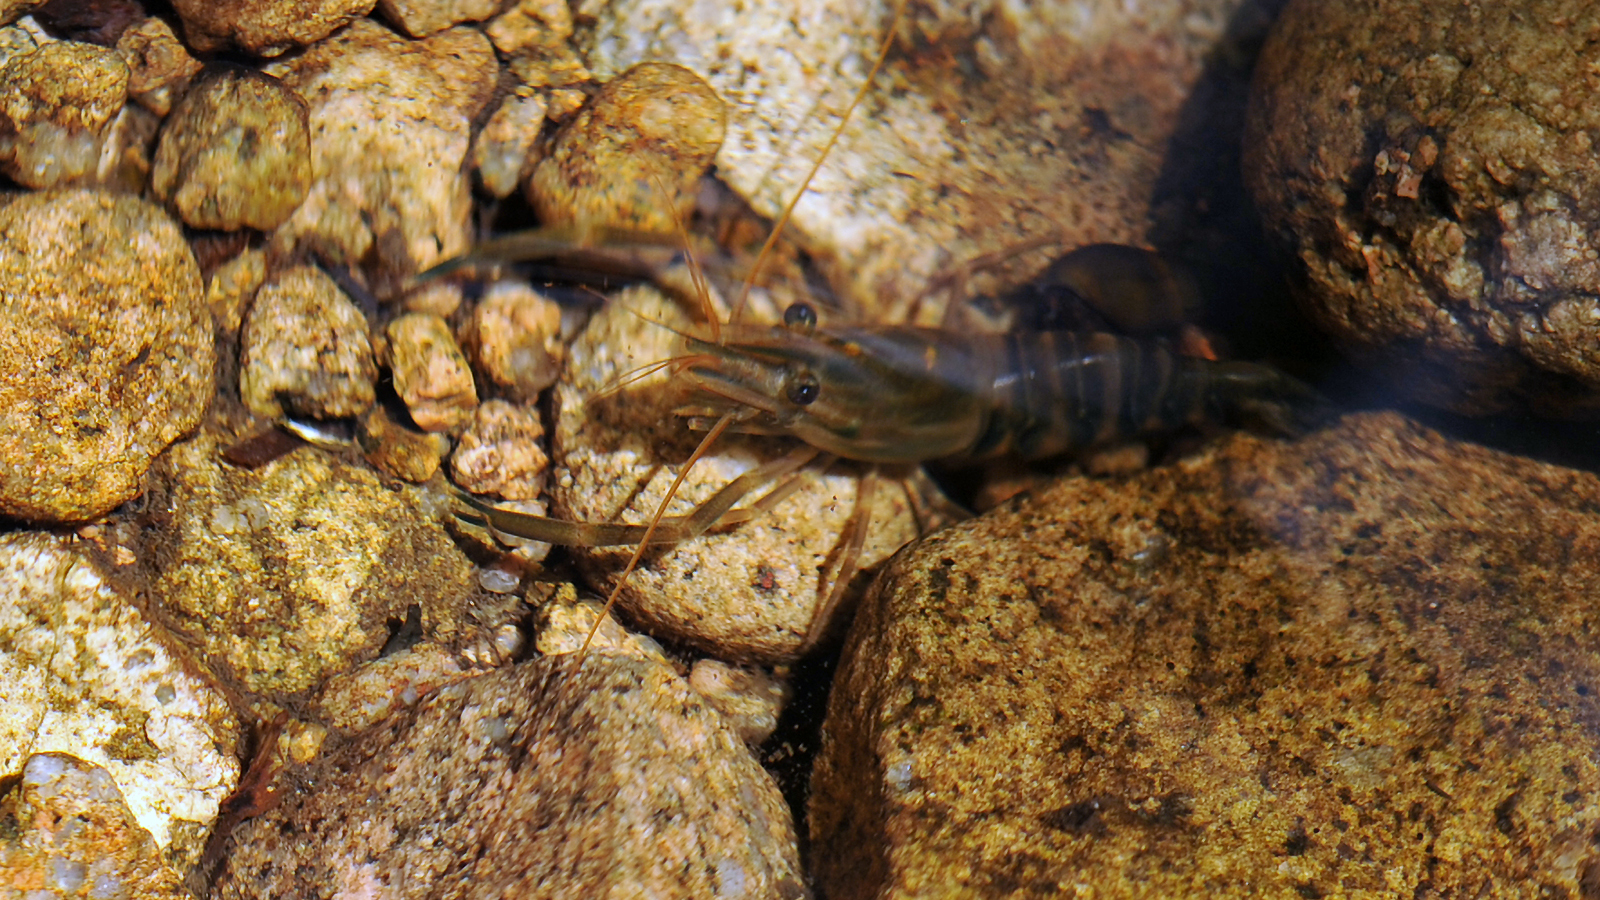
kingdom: Animalia
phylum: Arthropoda
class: Malacostraca
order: Decapoda
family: Palaemonidae
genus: Macrobrachium
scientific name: Macrobrachium koreana
